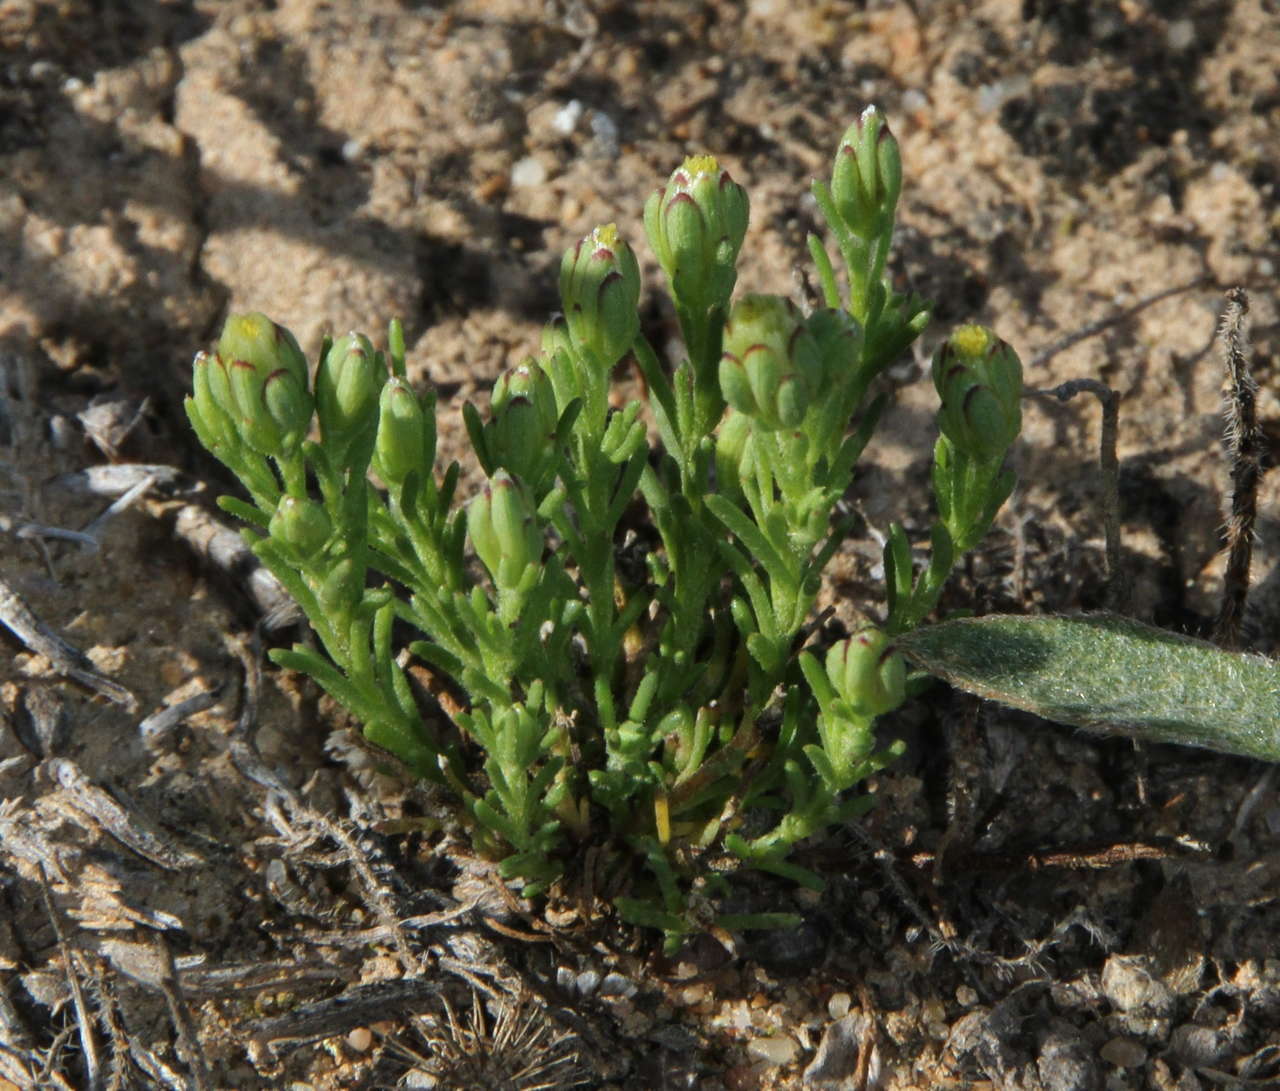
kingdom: Plantae
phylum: Tracheophyta
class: Magnoliopsida
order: Asterales
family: Asteraceae
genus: Elachanthus
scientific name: Elachanthus pusillus
